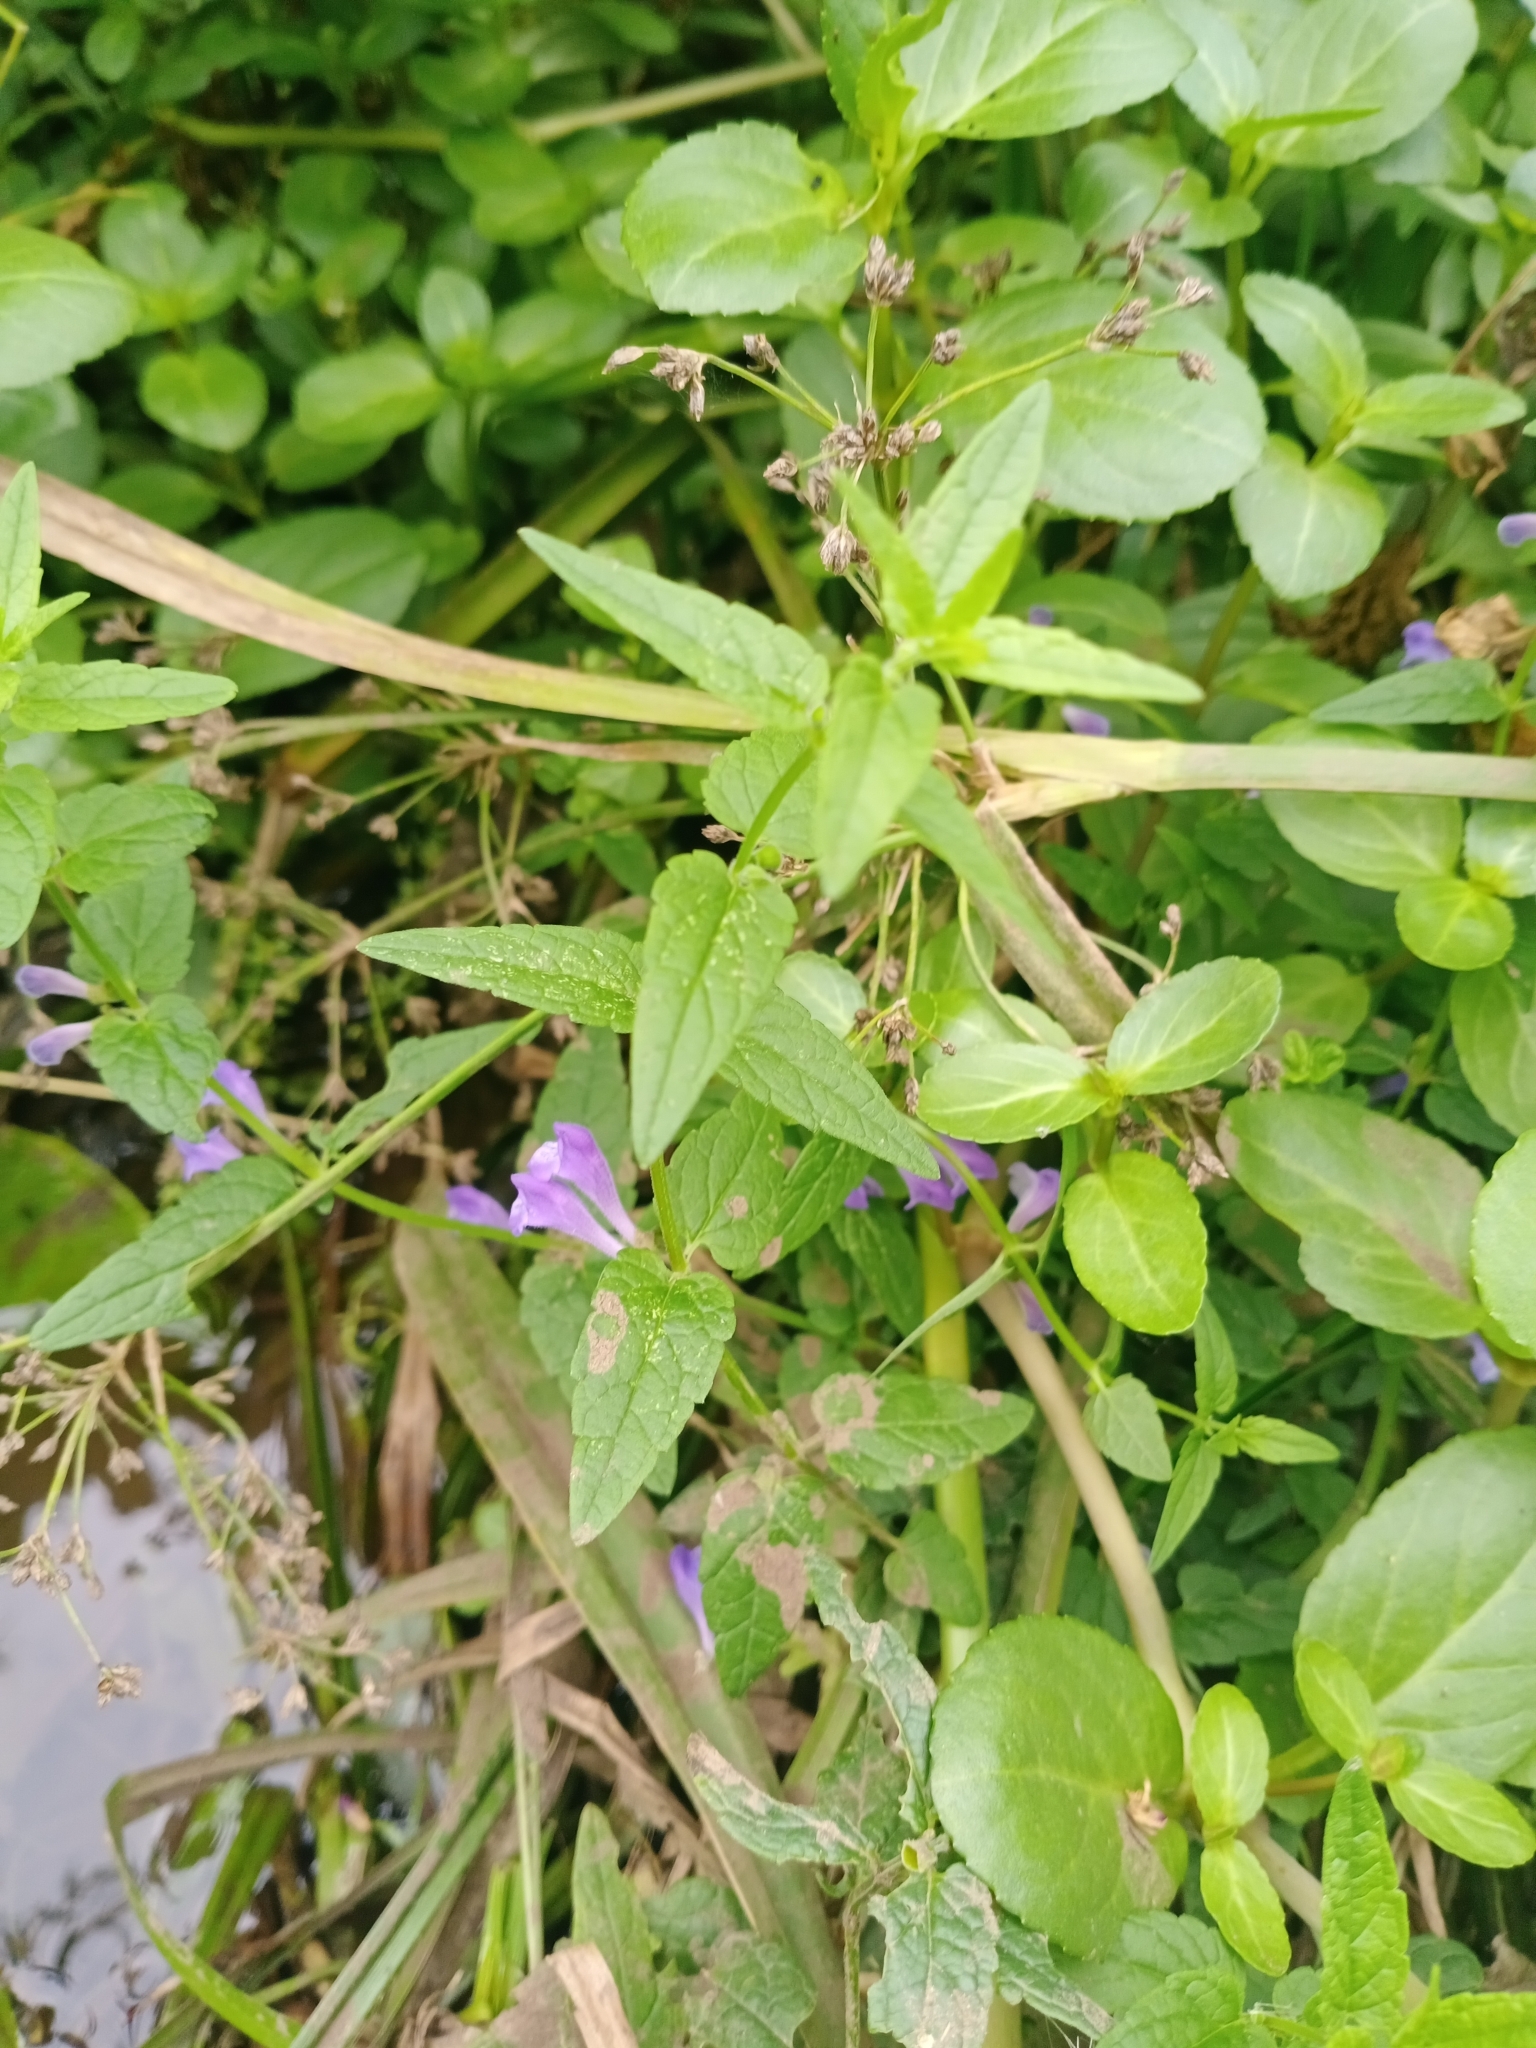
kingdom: Plantae
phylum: Tracheophyta
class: Magnoliopsida
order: Lamiales
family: Lamiaceae
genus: Scutellaria
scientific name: Scutellaria galericulata
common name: Skullcap
